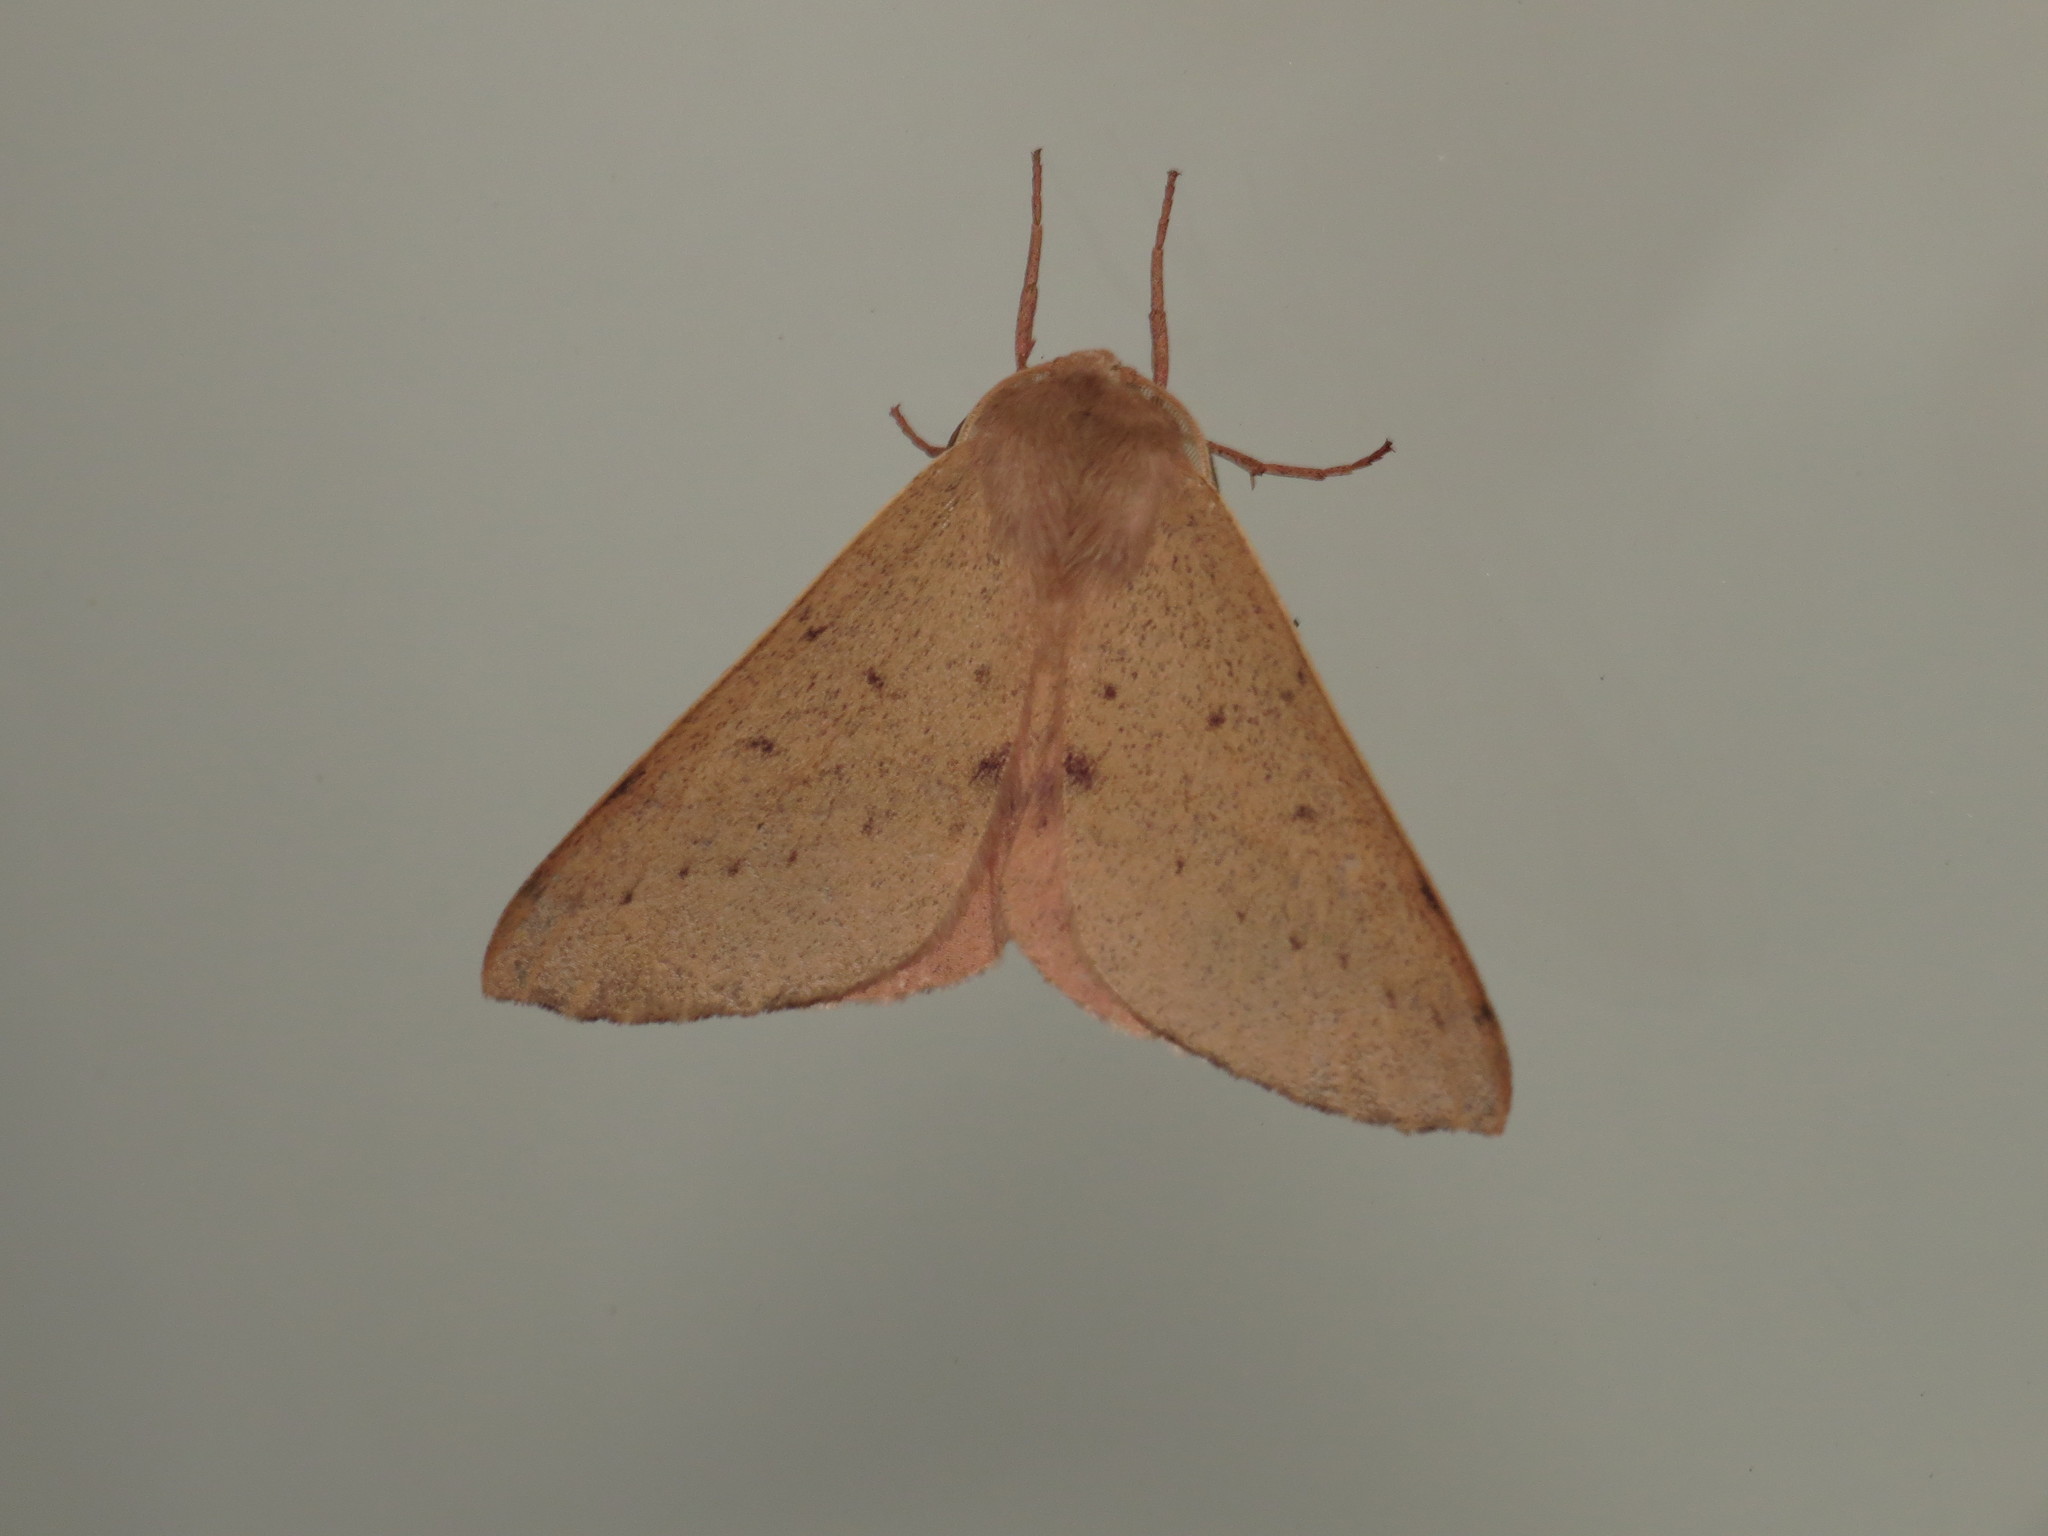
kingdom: Animalia
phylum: Arthropoda
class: Insecta
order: Lepidoptera
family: Geometridae
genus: Arhodia
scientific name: Arhodia lasiocamparia
